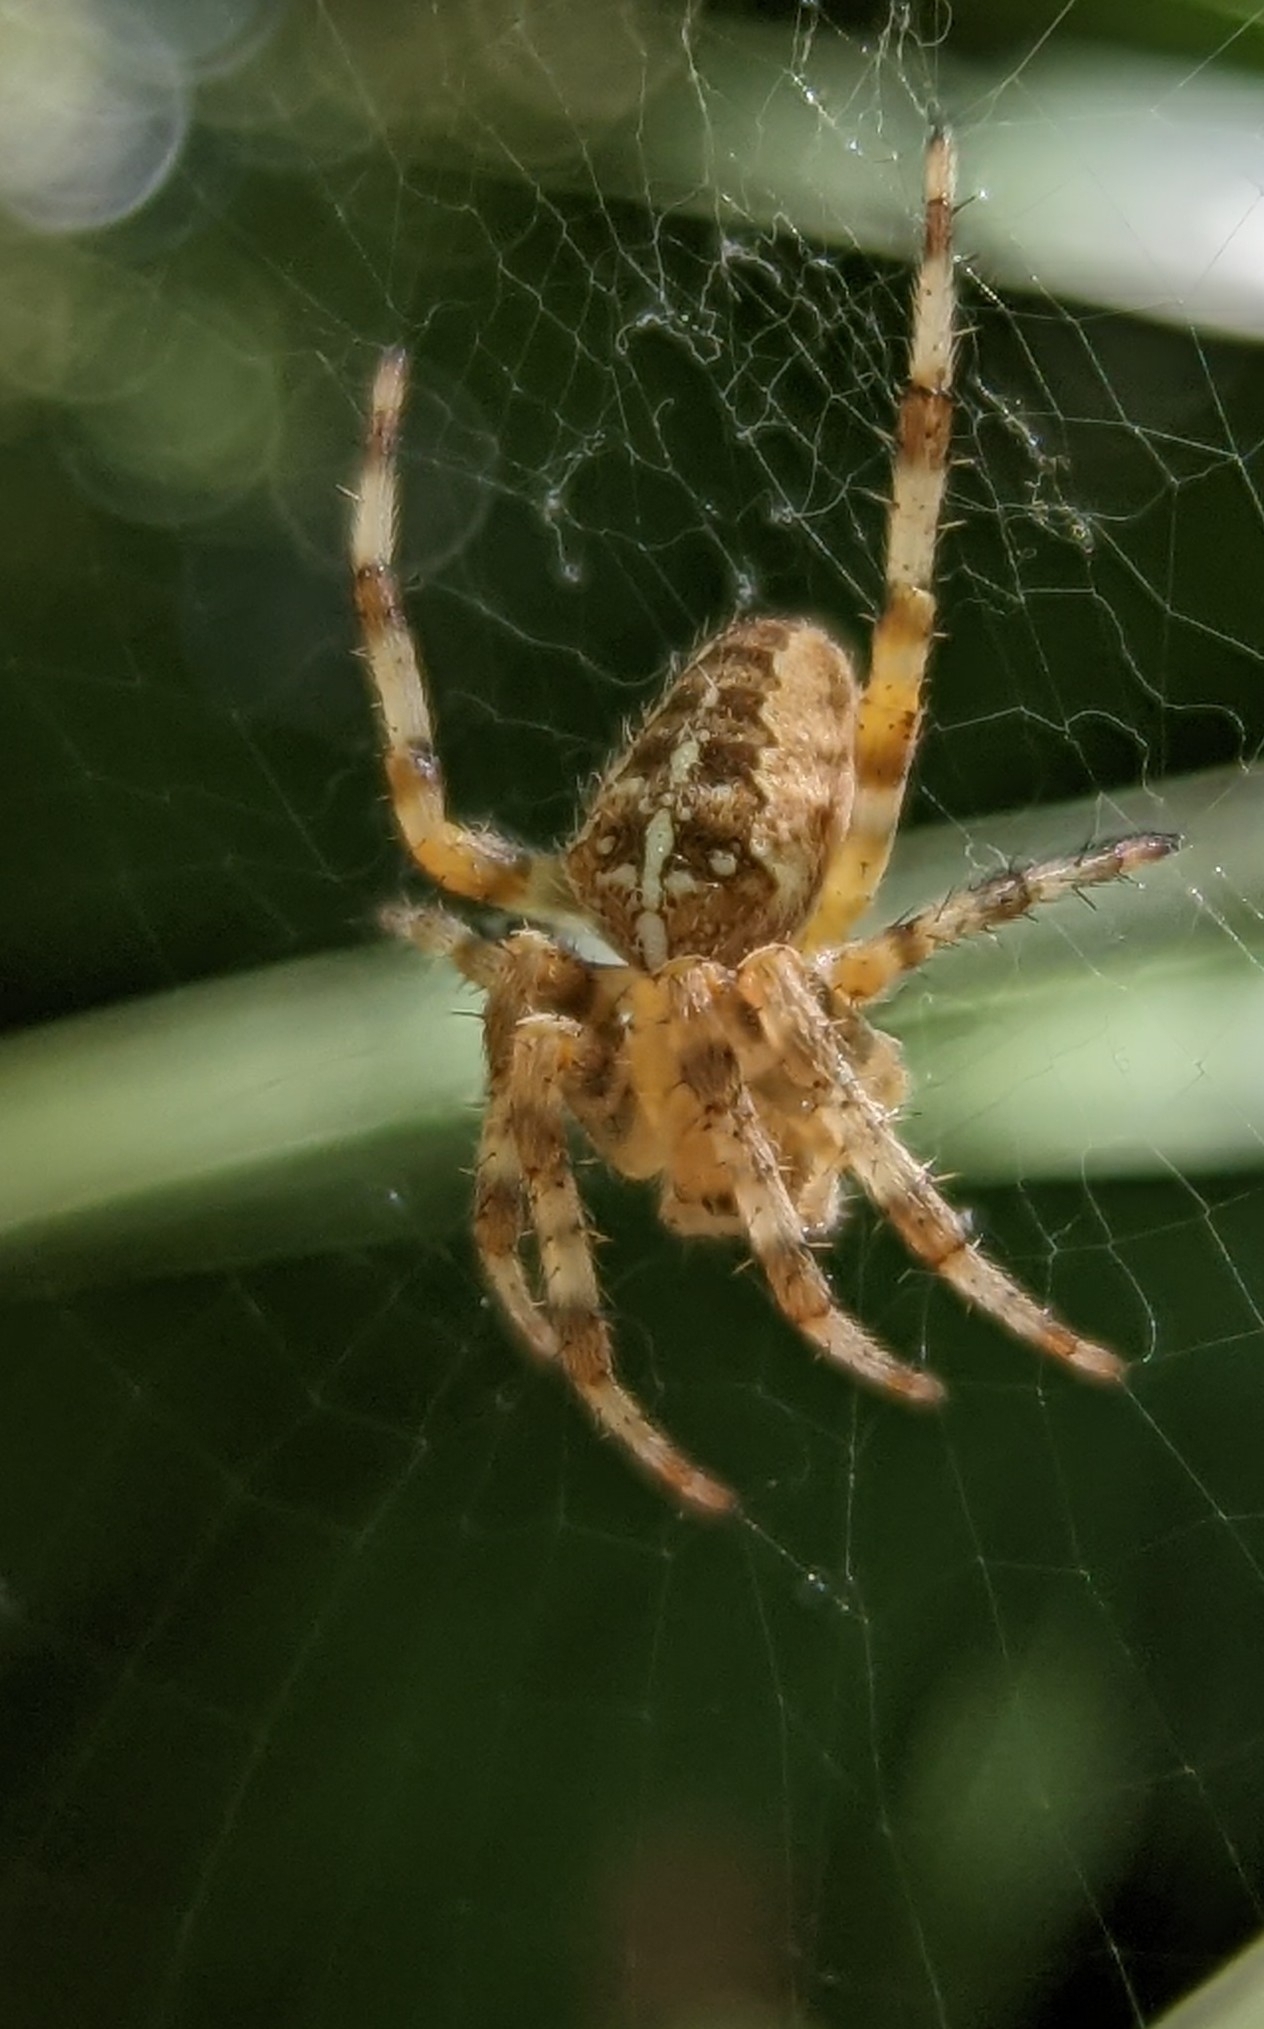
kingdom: Animalia
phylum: Arthropoda
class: Arachnida
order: Araneae
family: Araneidae
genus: Araneus
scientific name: Araneus diadematus
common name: Cross orbweaver
